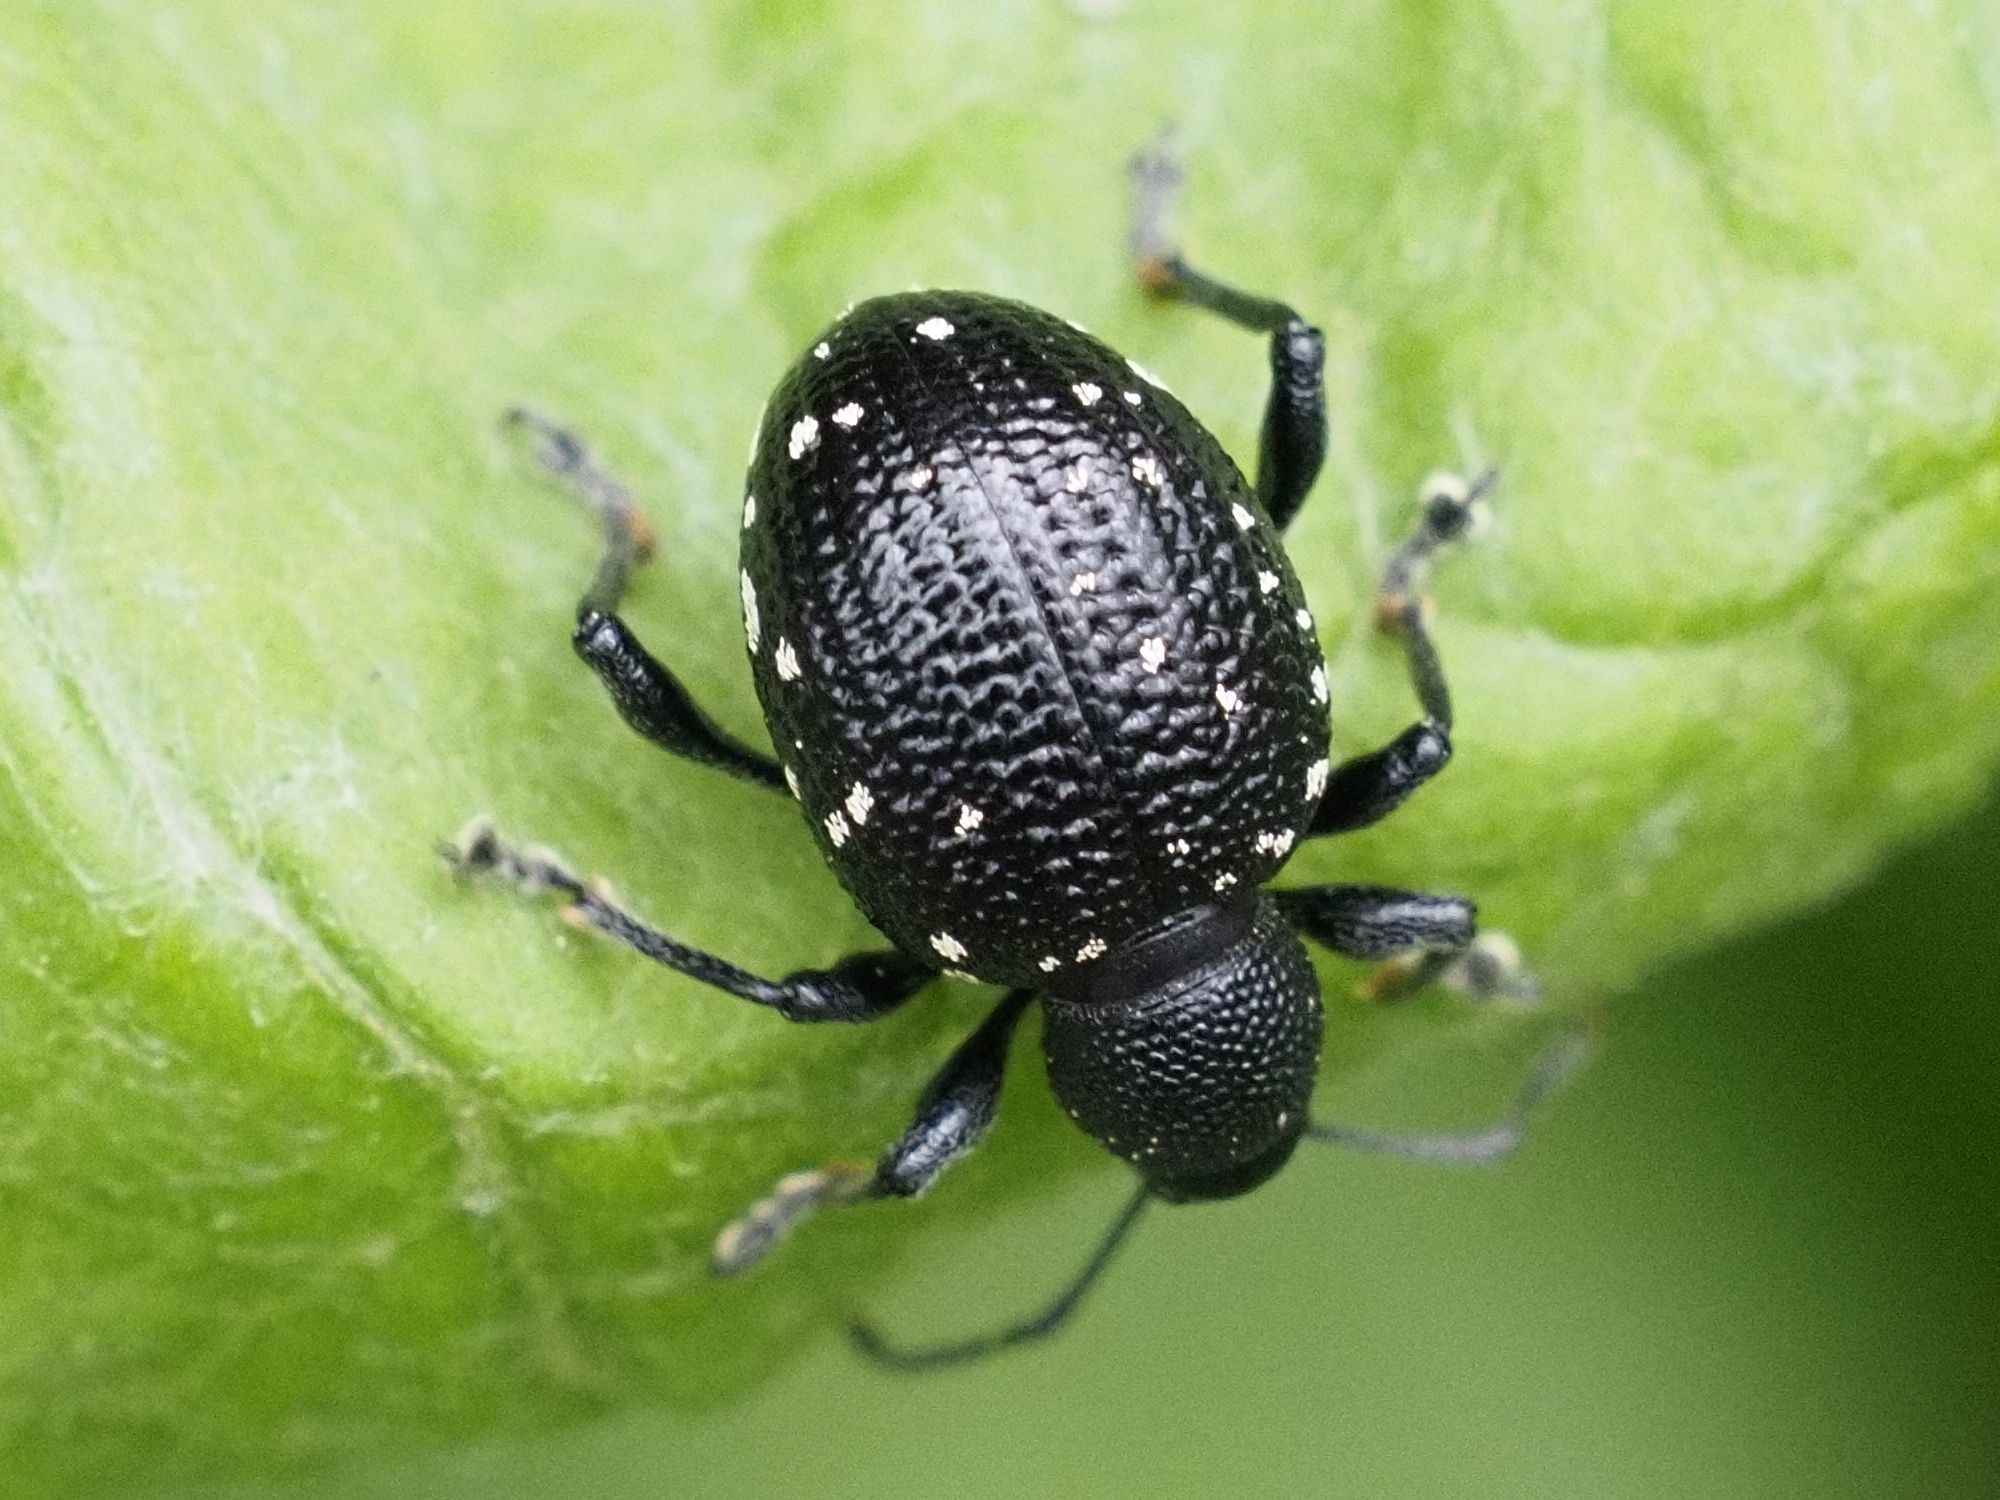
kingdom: Animalia
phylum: Arthropoda
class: Insecta
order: Coleoptera
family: Curculionidae
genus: Otiorhynchus
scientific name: Otiorhynchus gemmatus
